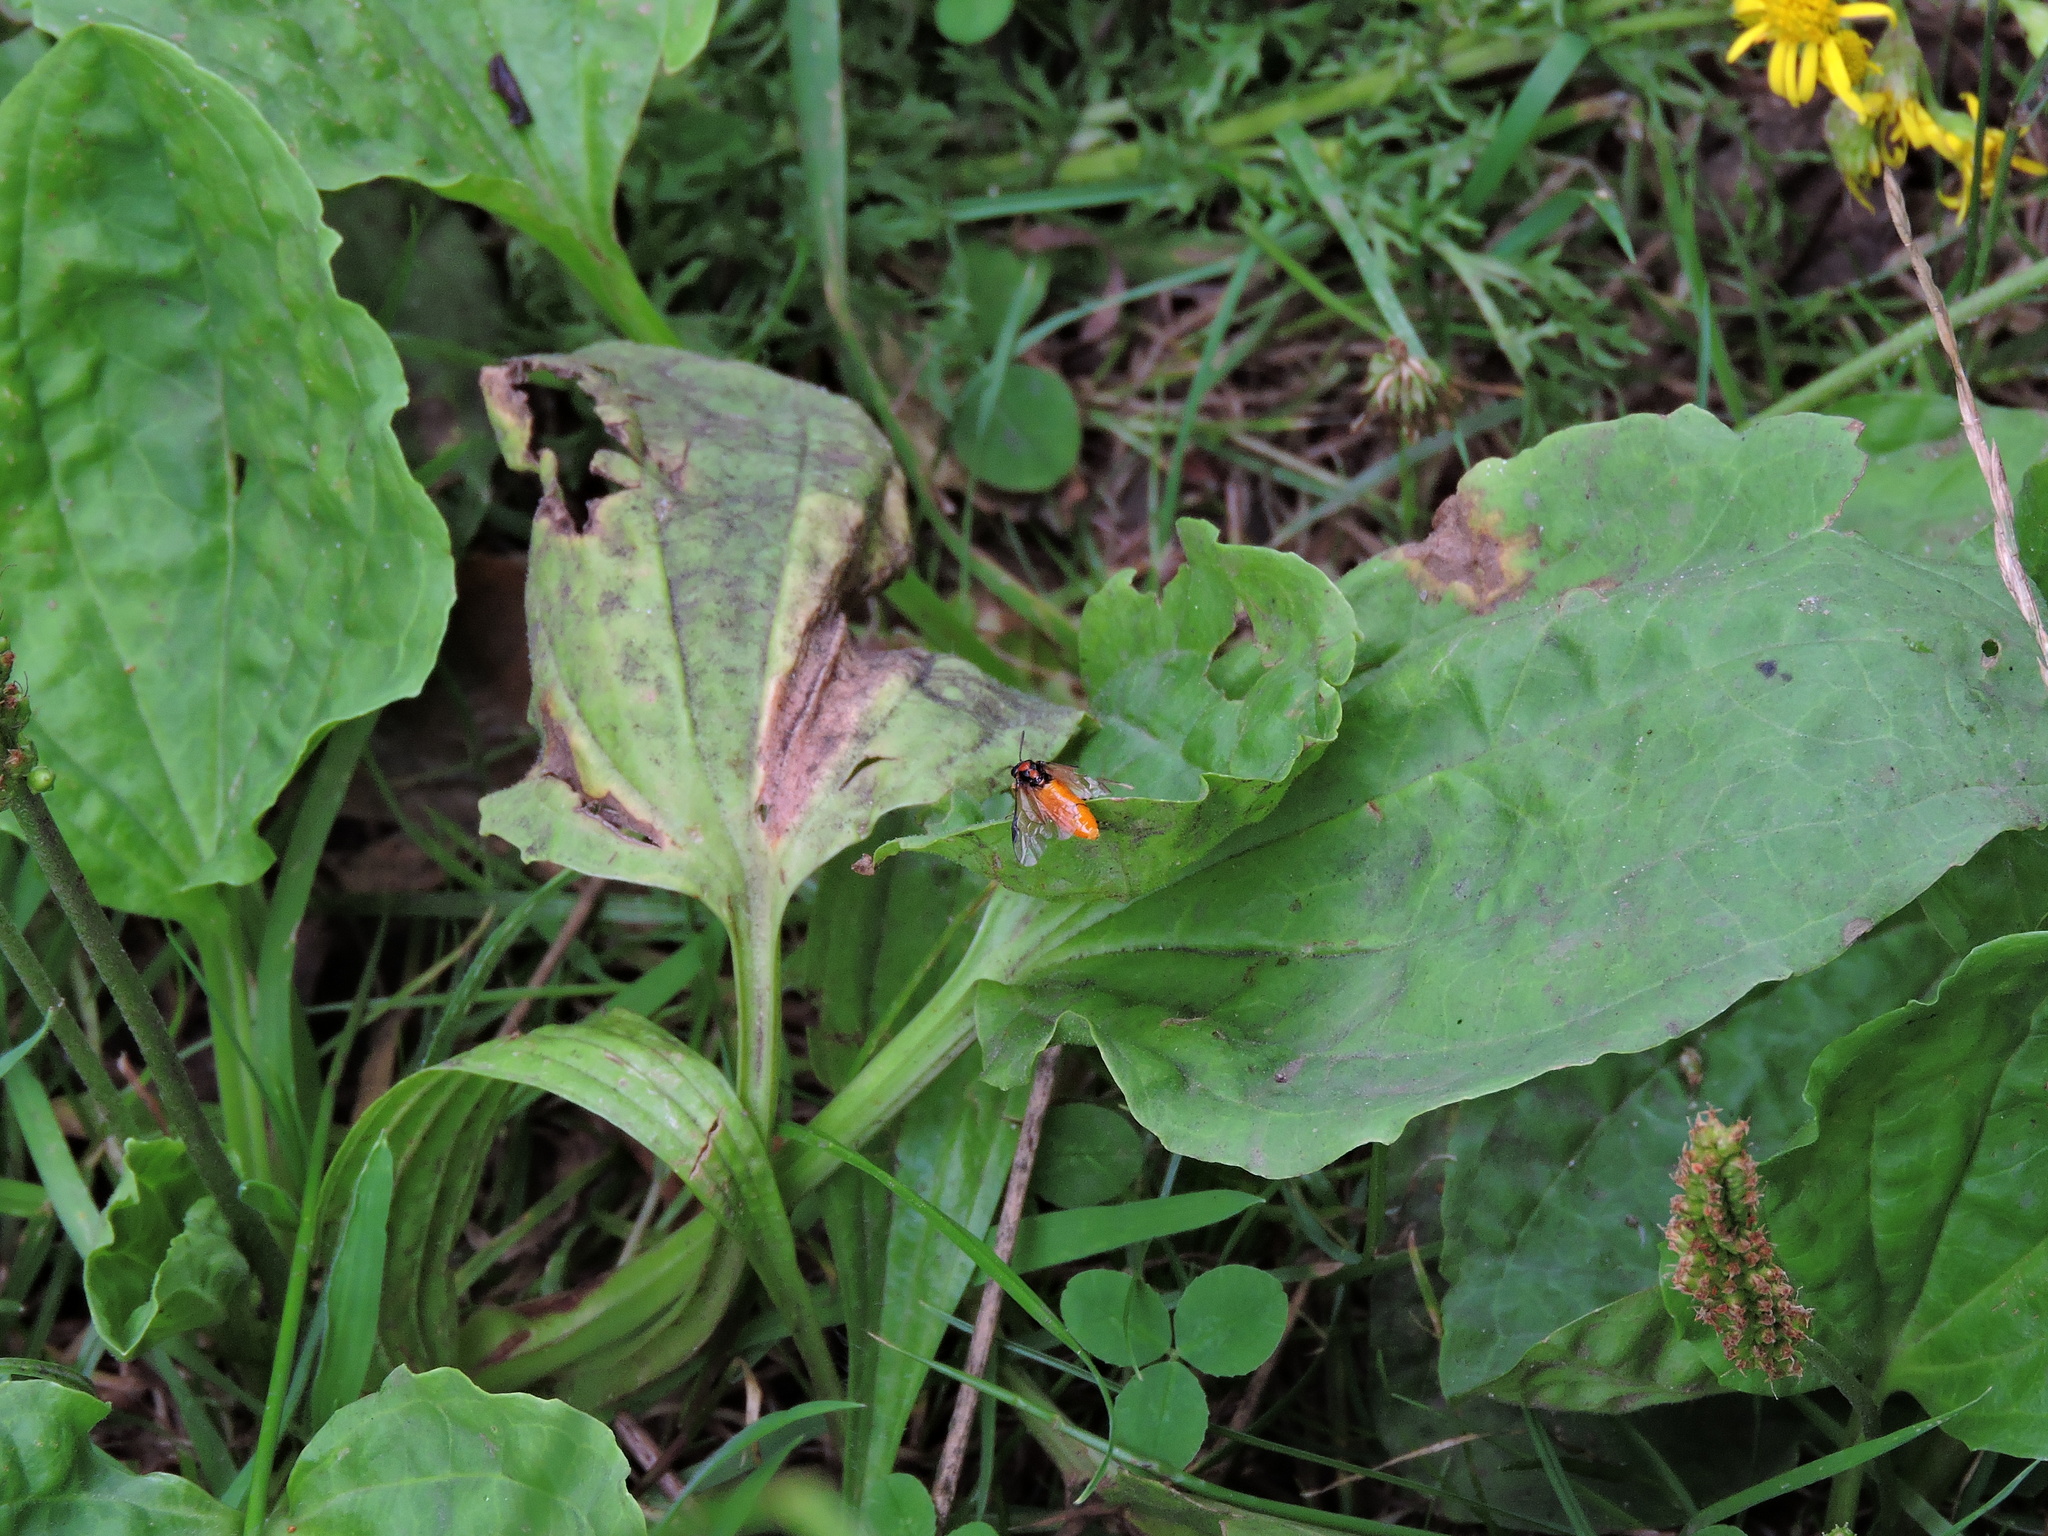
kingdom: Animalia
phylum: Arthropoda
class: Insecta
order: Hymenoptera
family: Tenthredinidae
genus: Athalia
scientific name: Athalia rosae
